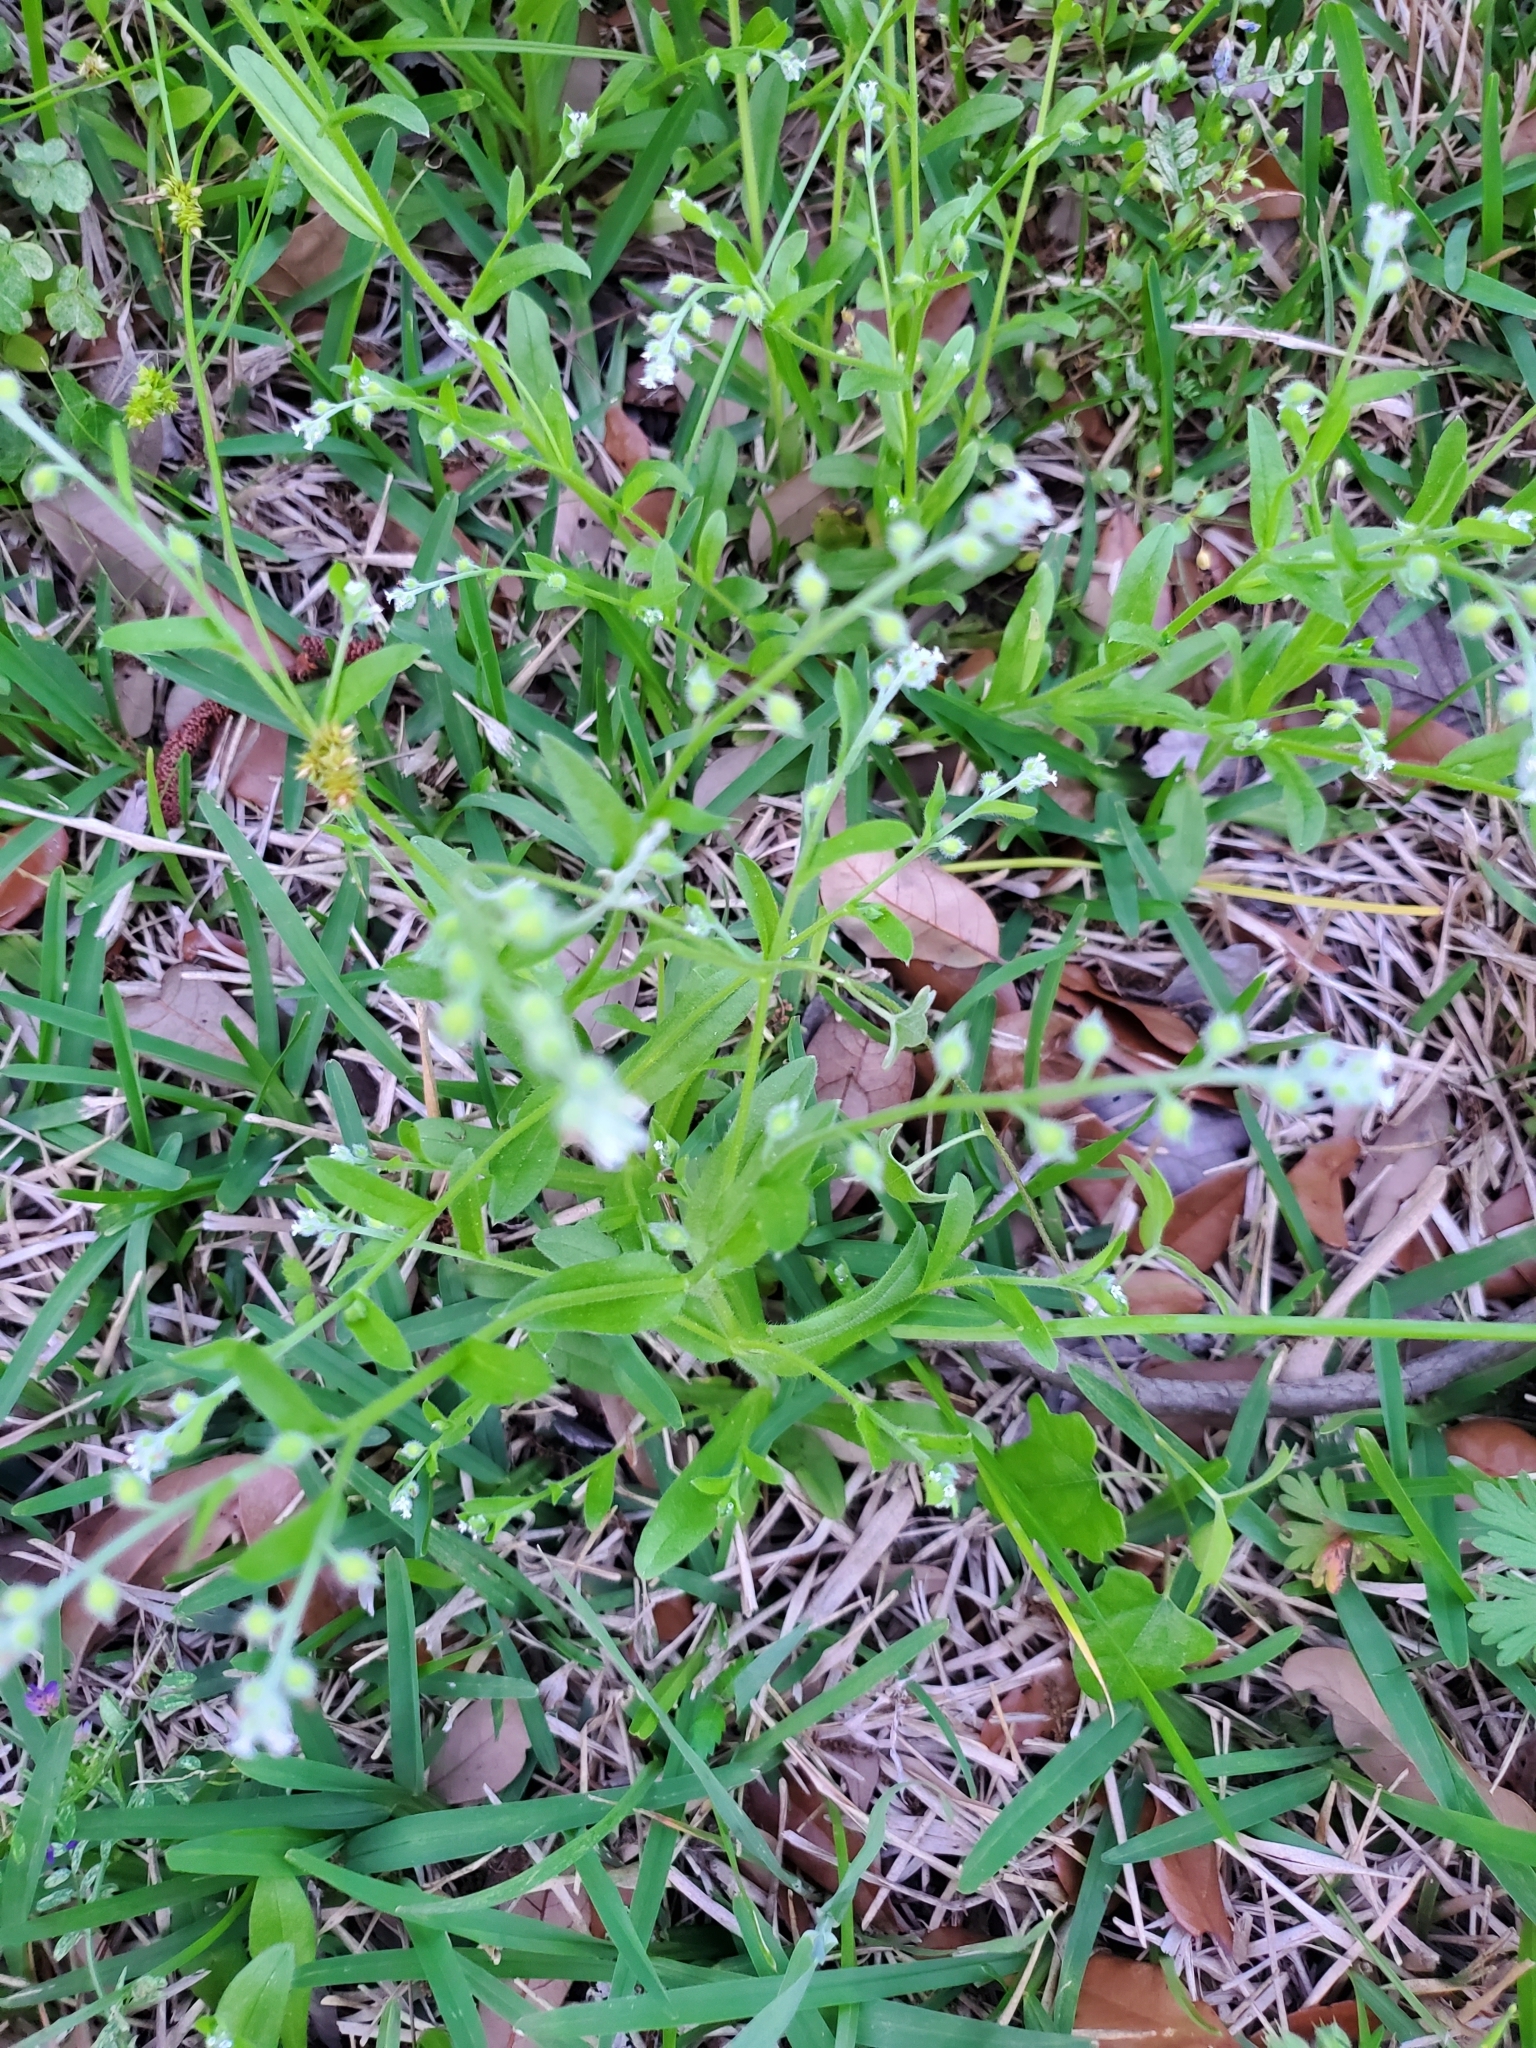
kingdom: Plantae
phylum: Tracheophyta
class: Magnoliopsida
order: Boraginales
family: Boraginaceae
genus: Myosotis
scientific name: Myosotis macrosperma
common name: Large-seed forget-me-not
